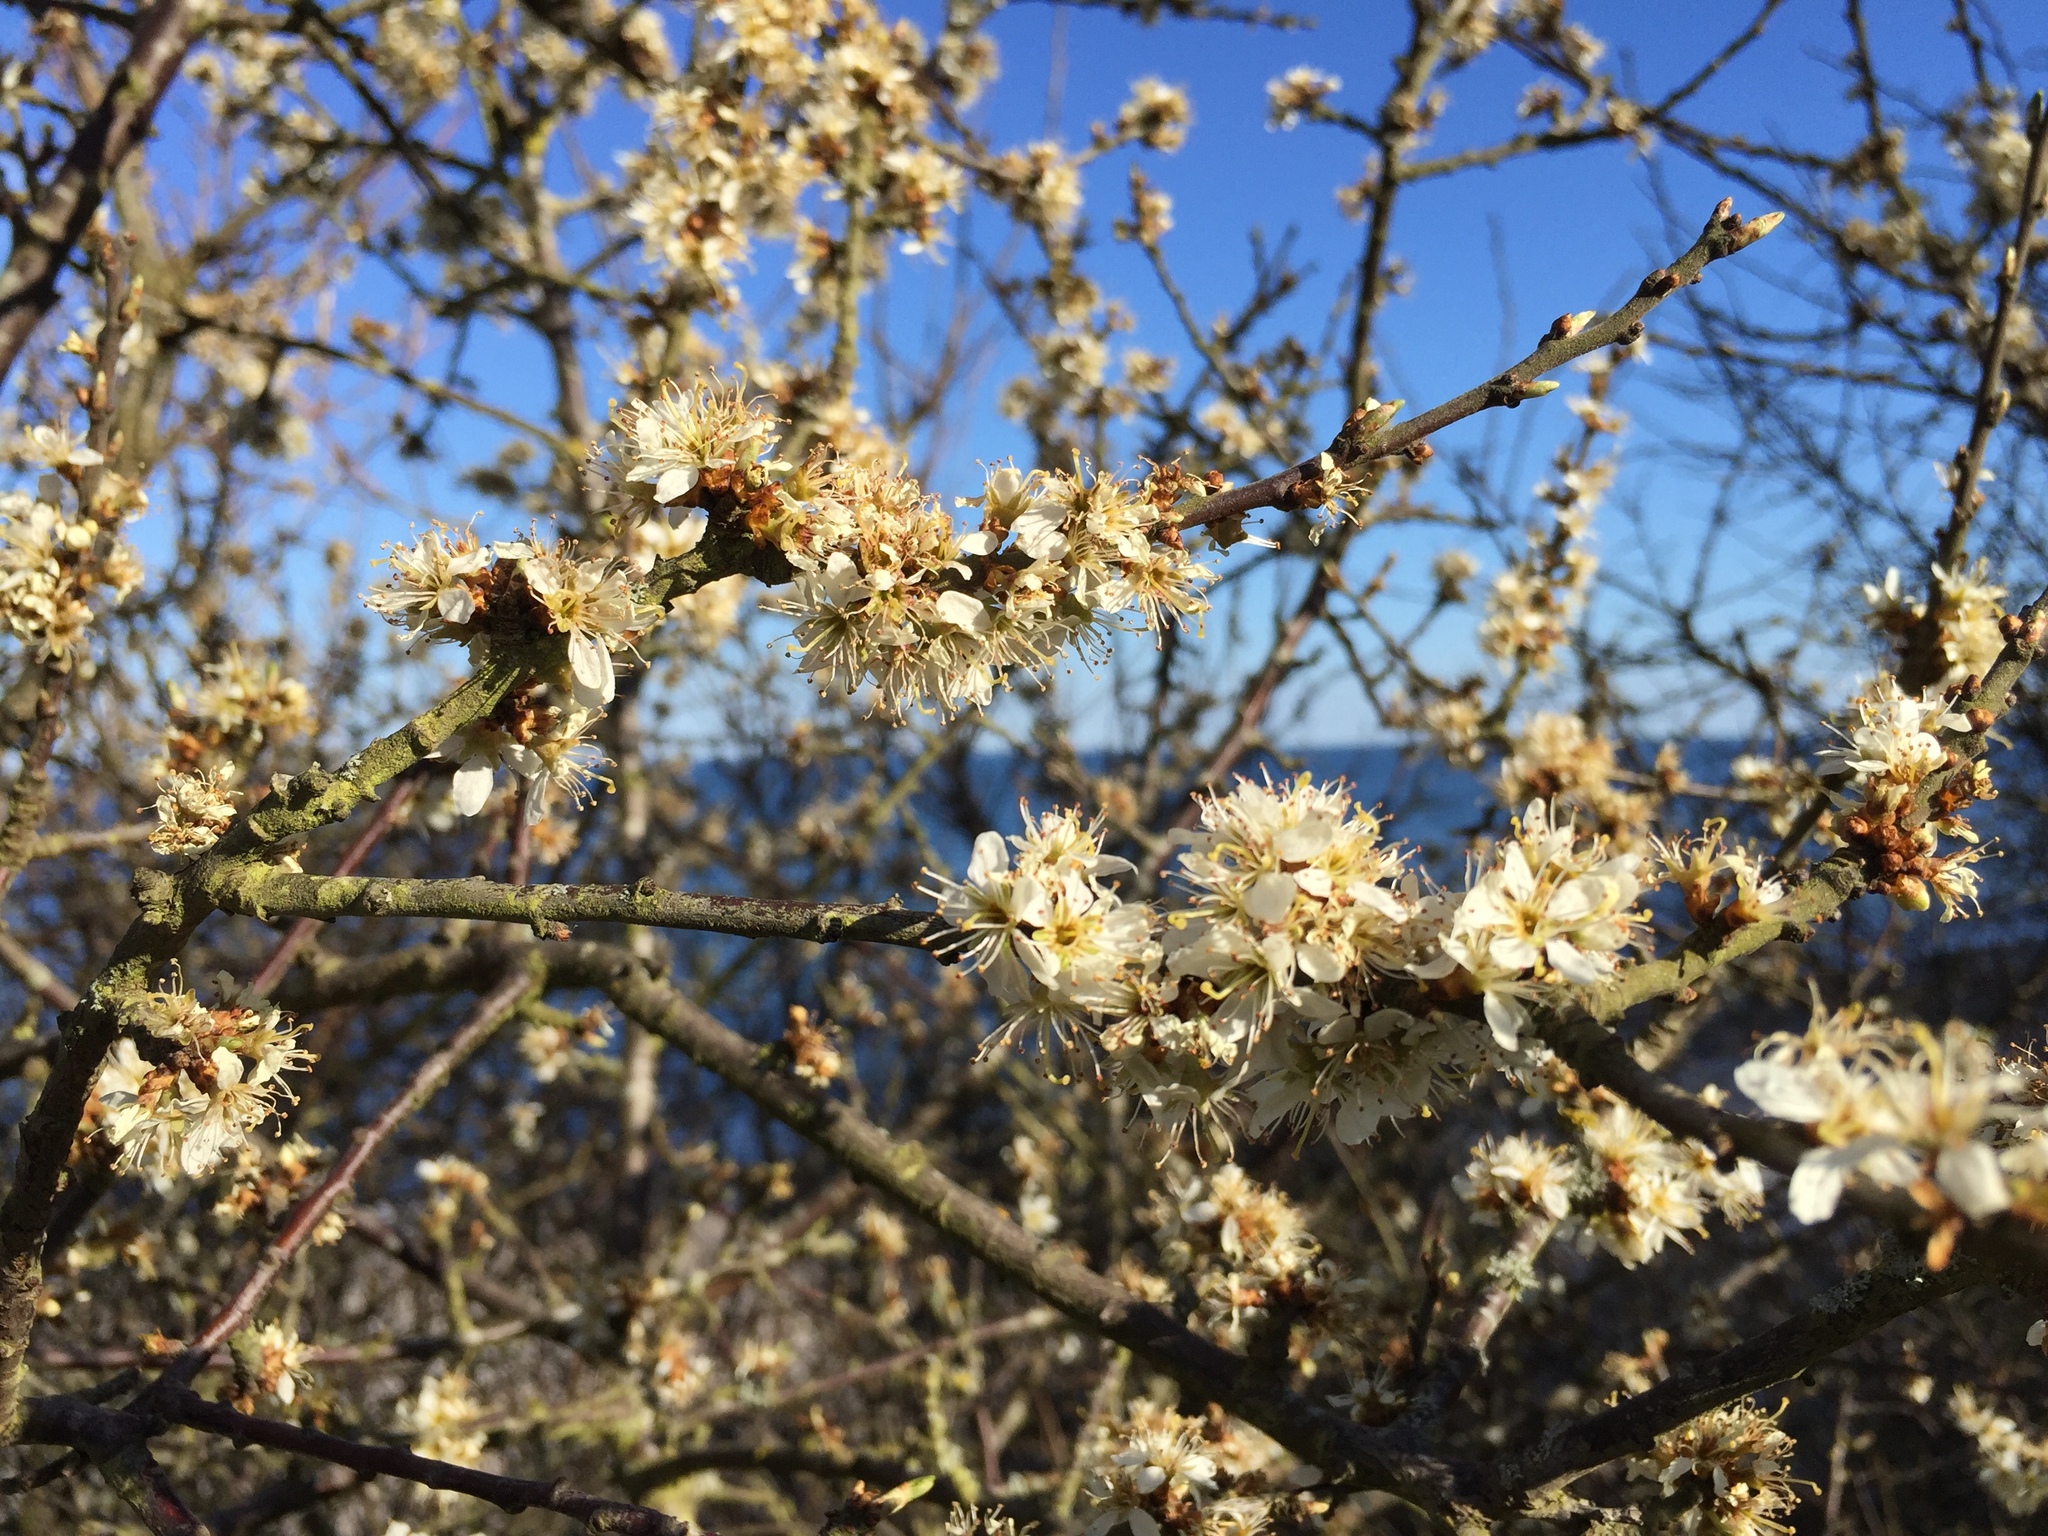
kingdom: Plantae
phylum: Tracheophyta
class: Magnoliopsida
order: Rosales
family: Rosaceae
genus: Prunus
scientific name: Prunus spinosa
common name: Blackthorn
